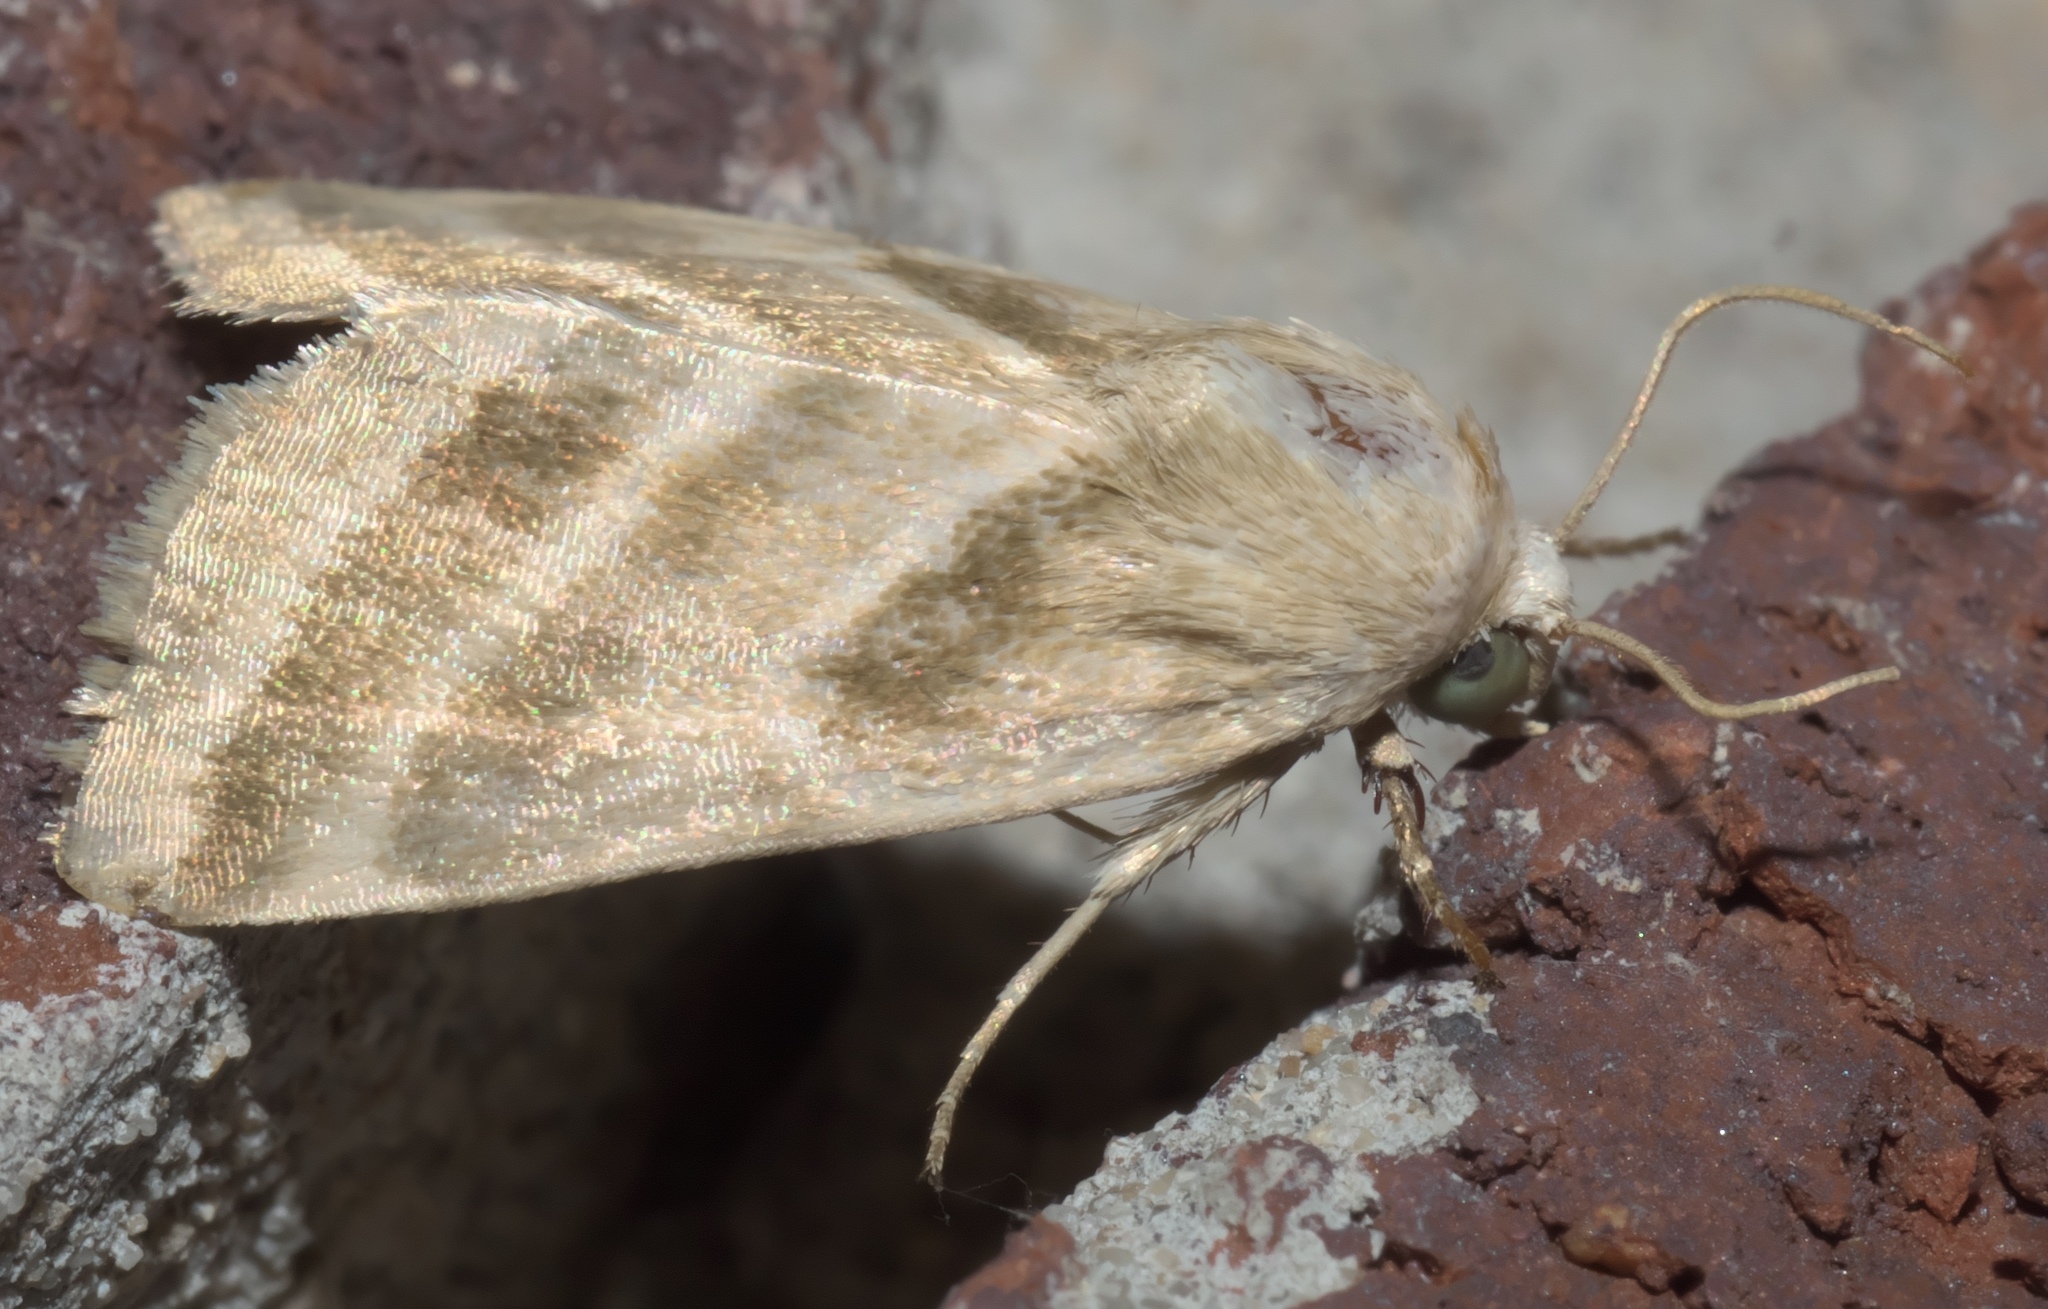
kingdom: Animalia
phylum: Arthropoda
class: Insecta
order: Lepidoptera
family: Noctuidae
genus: Schinia
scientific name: Schinia trifascia
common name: Three-lined flower moth
